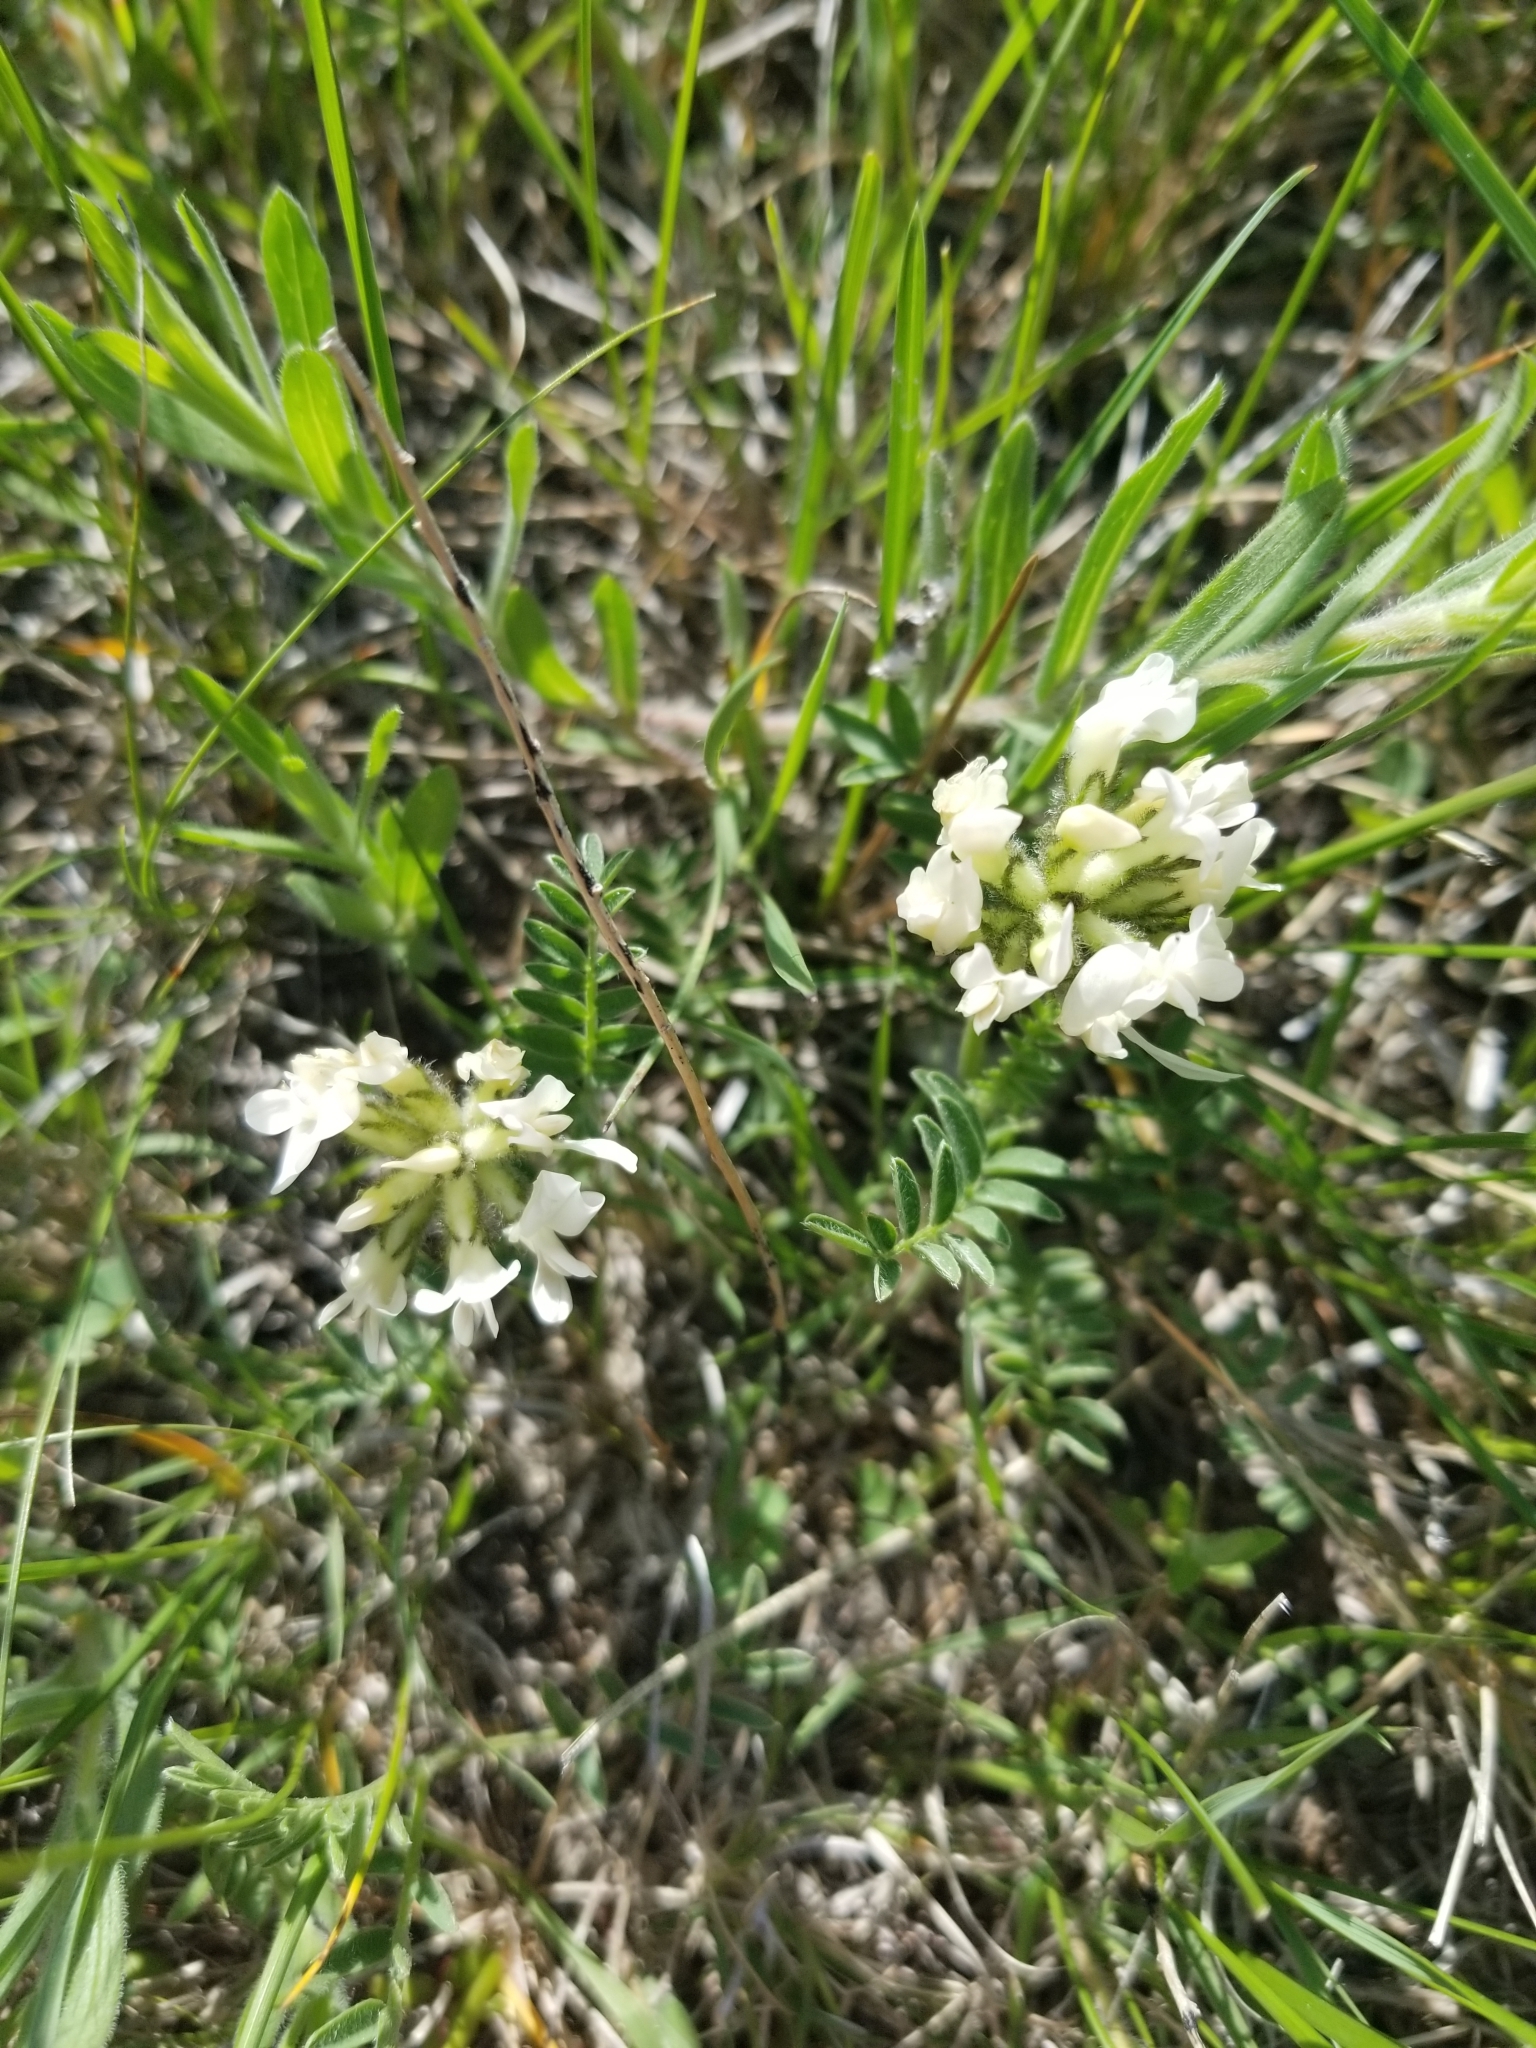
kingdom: Plantae
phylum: Tracheophyta
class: Magnoliopsida
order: Fabales
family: Fabaceae
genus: Astragalus
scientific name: Astragalus agrestis
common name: Field milk-vetch
